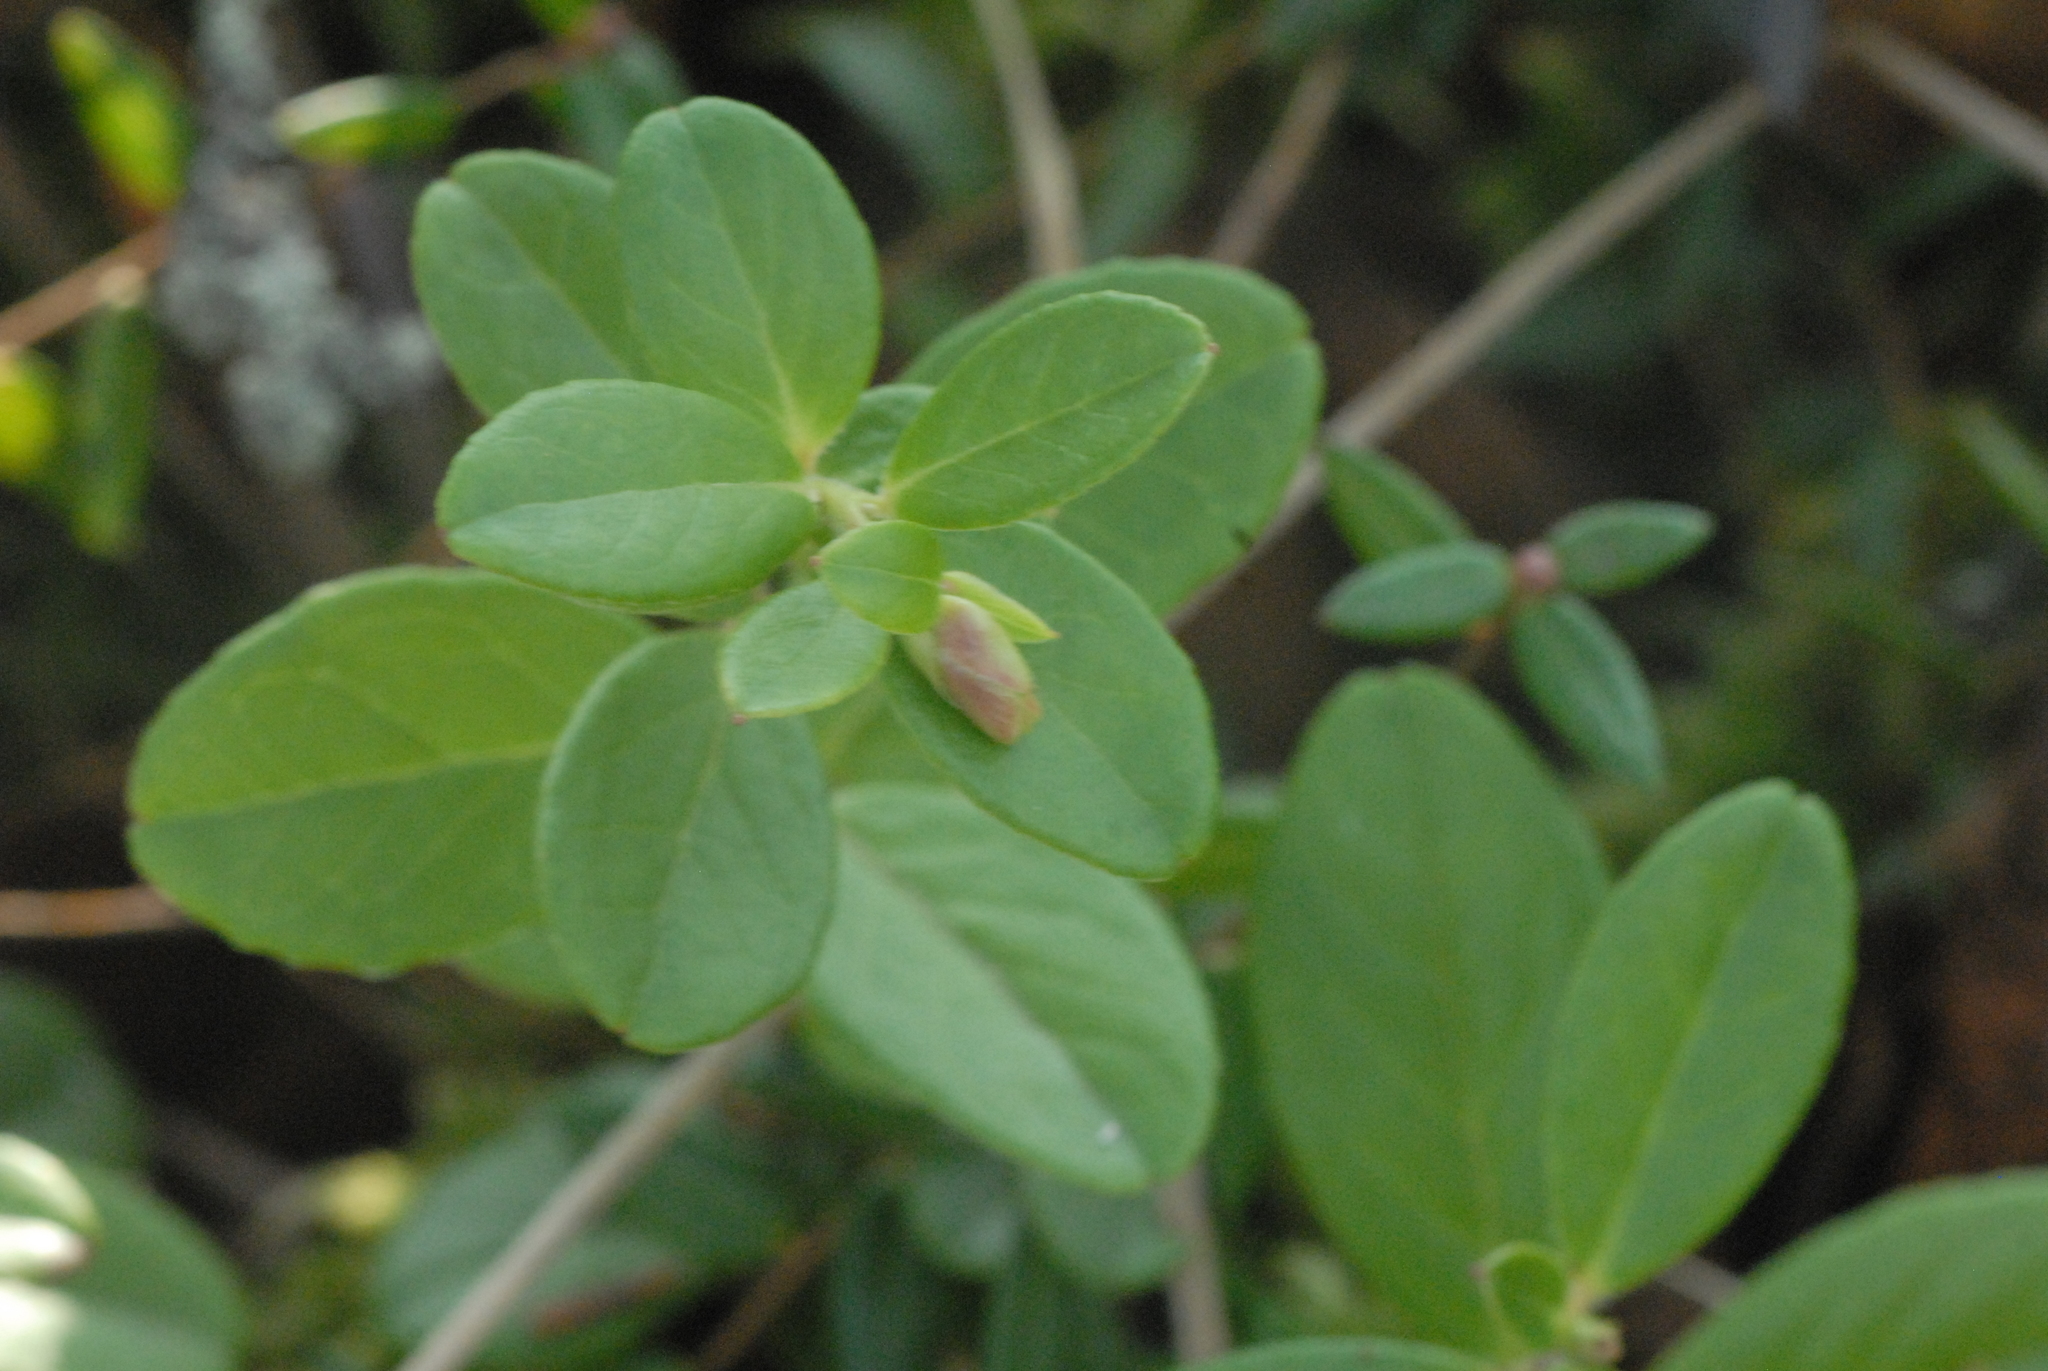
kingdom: Plantae
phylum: Tracheophyta
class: Magnoliopsida
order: Ericales
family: Ericaceae
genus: Vaccinium
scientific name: Vaccinium vitis-idaea
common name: Cowberry
